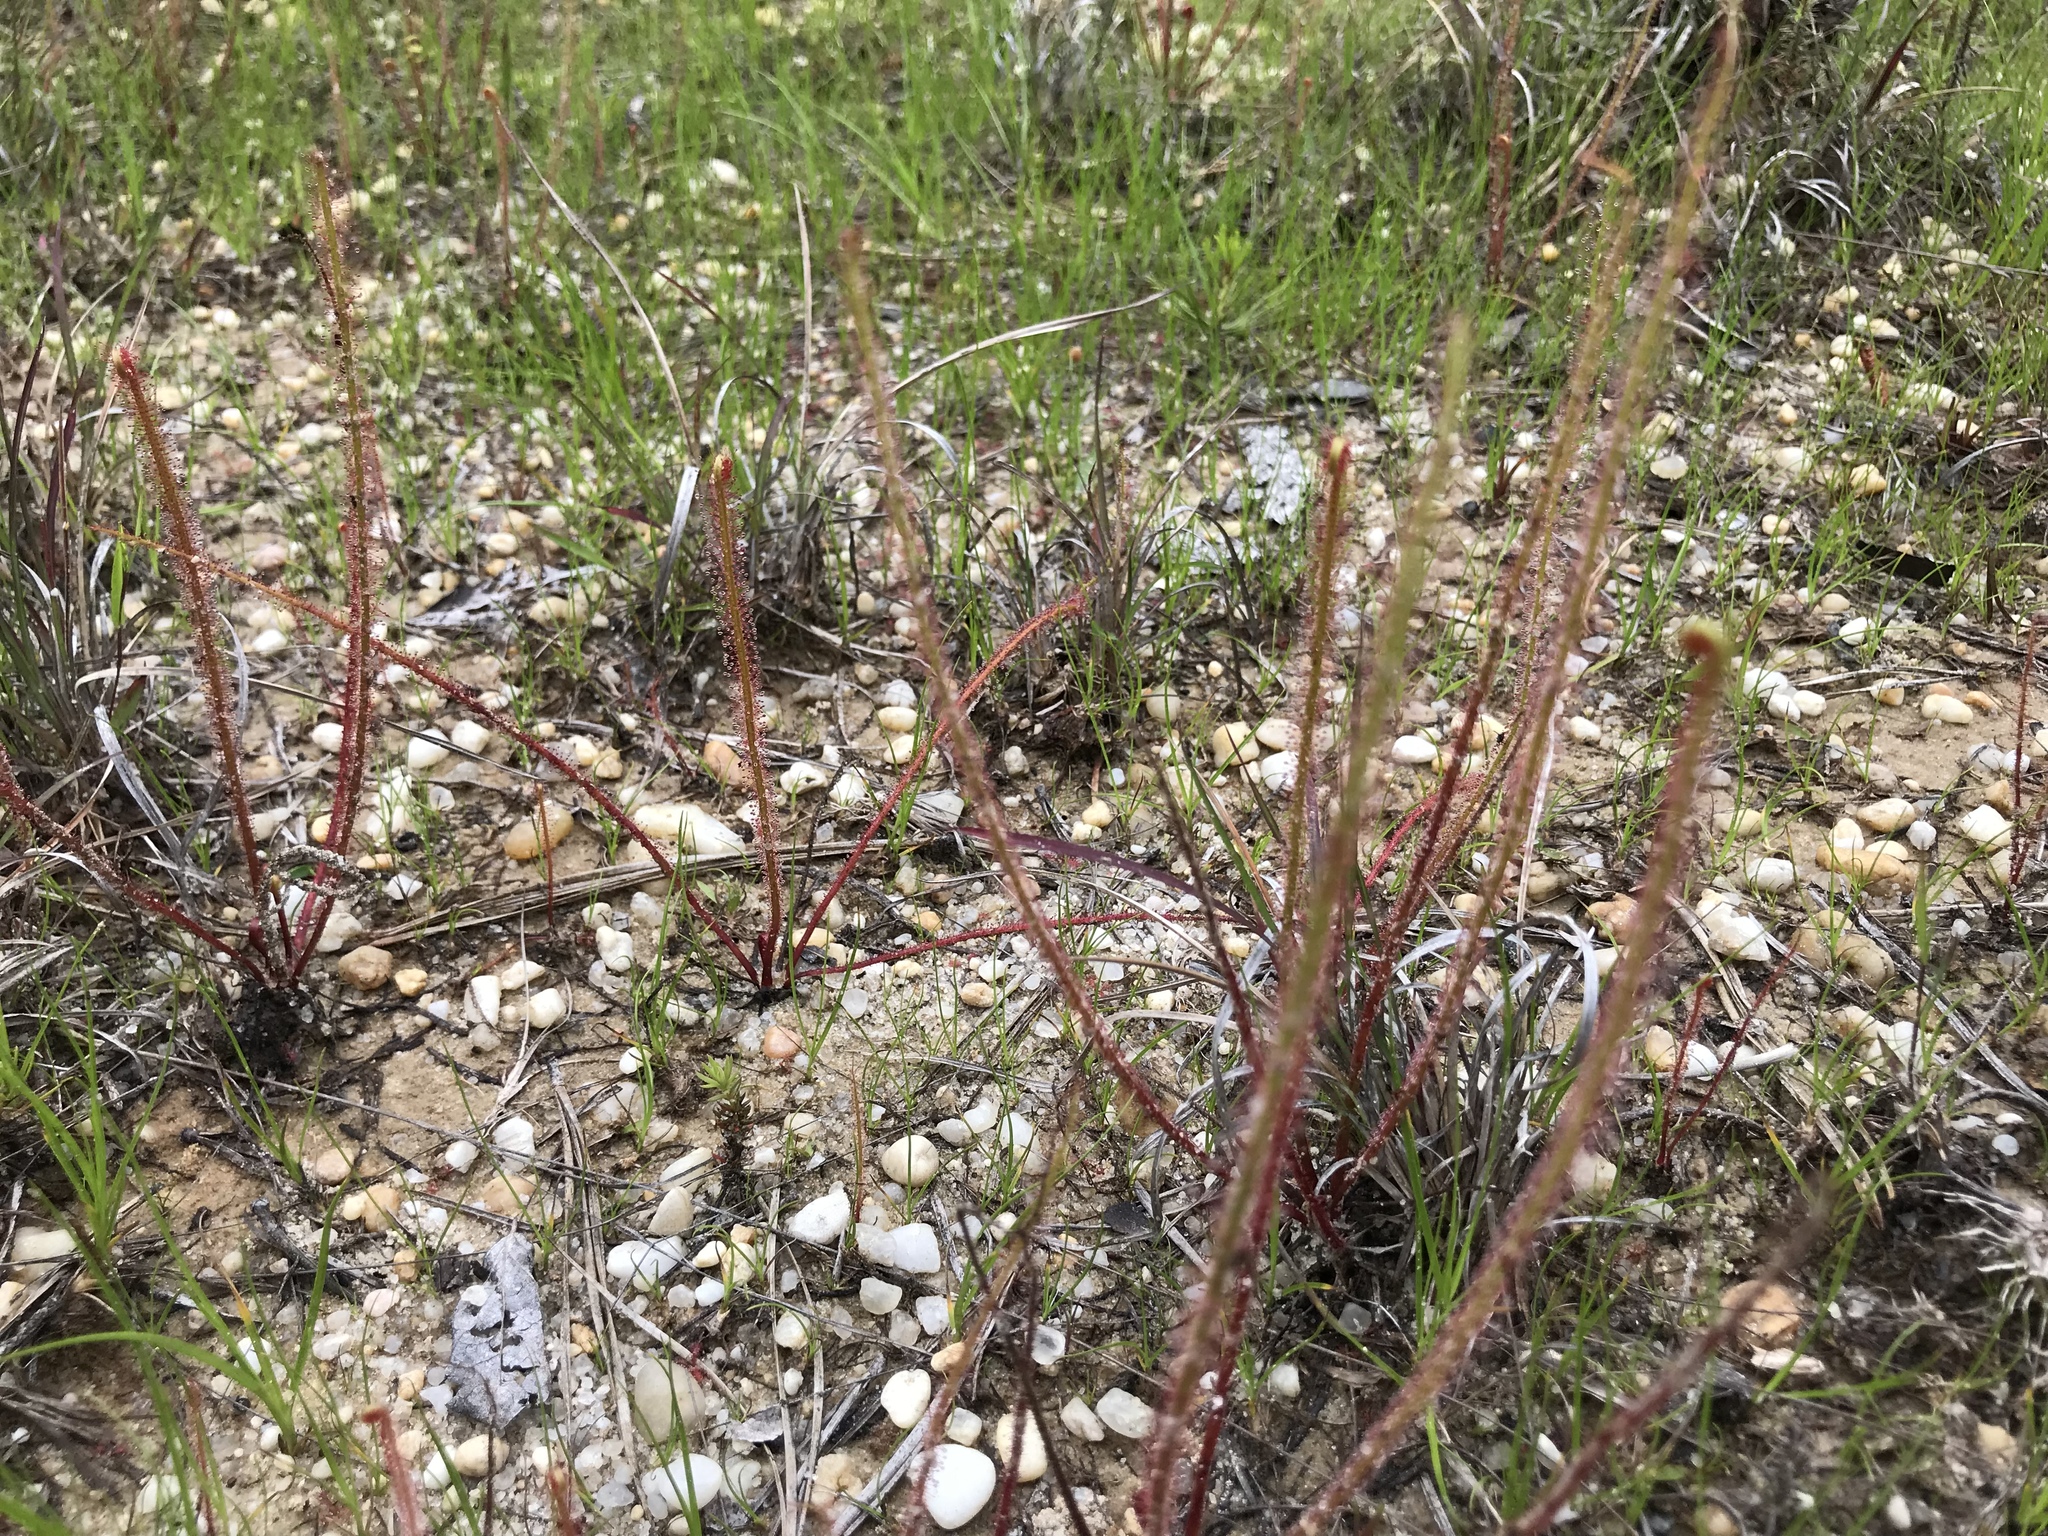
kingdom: Plantae
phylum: Tracheophyta
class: Magnoliopsida
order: Caryophyllales
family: Droseraceae
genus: Drosera
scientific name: Drosera filiformis
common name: Dew-thread
